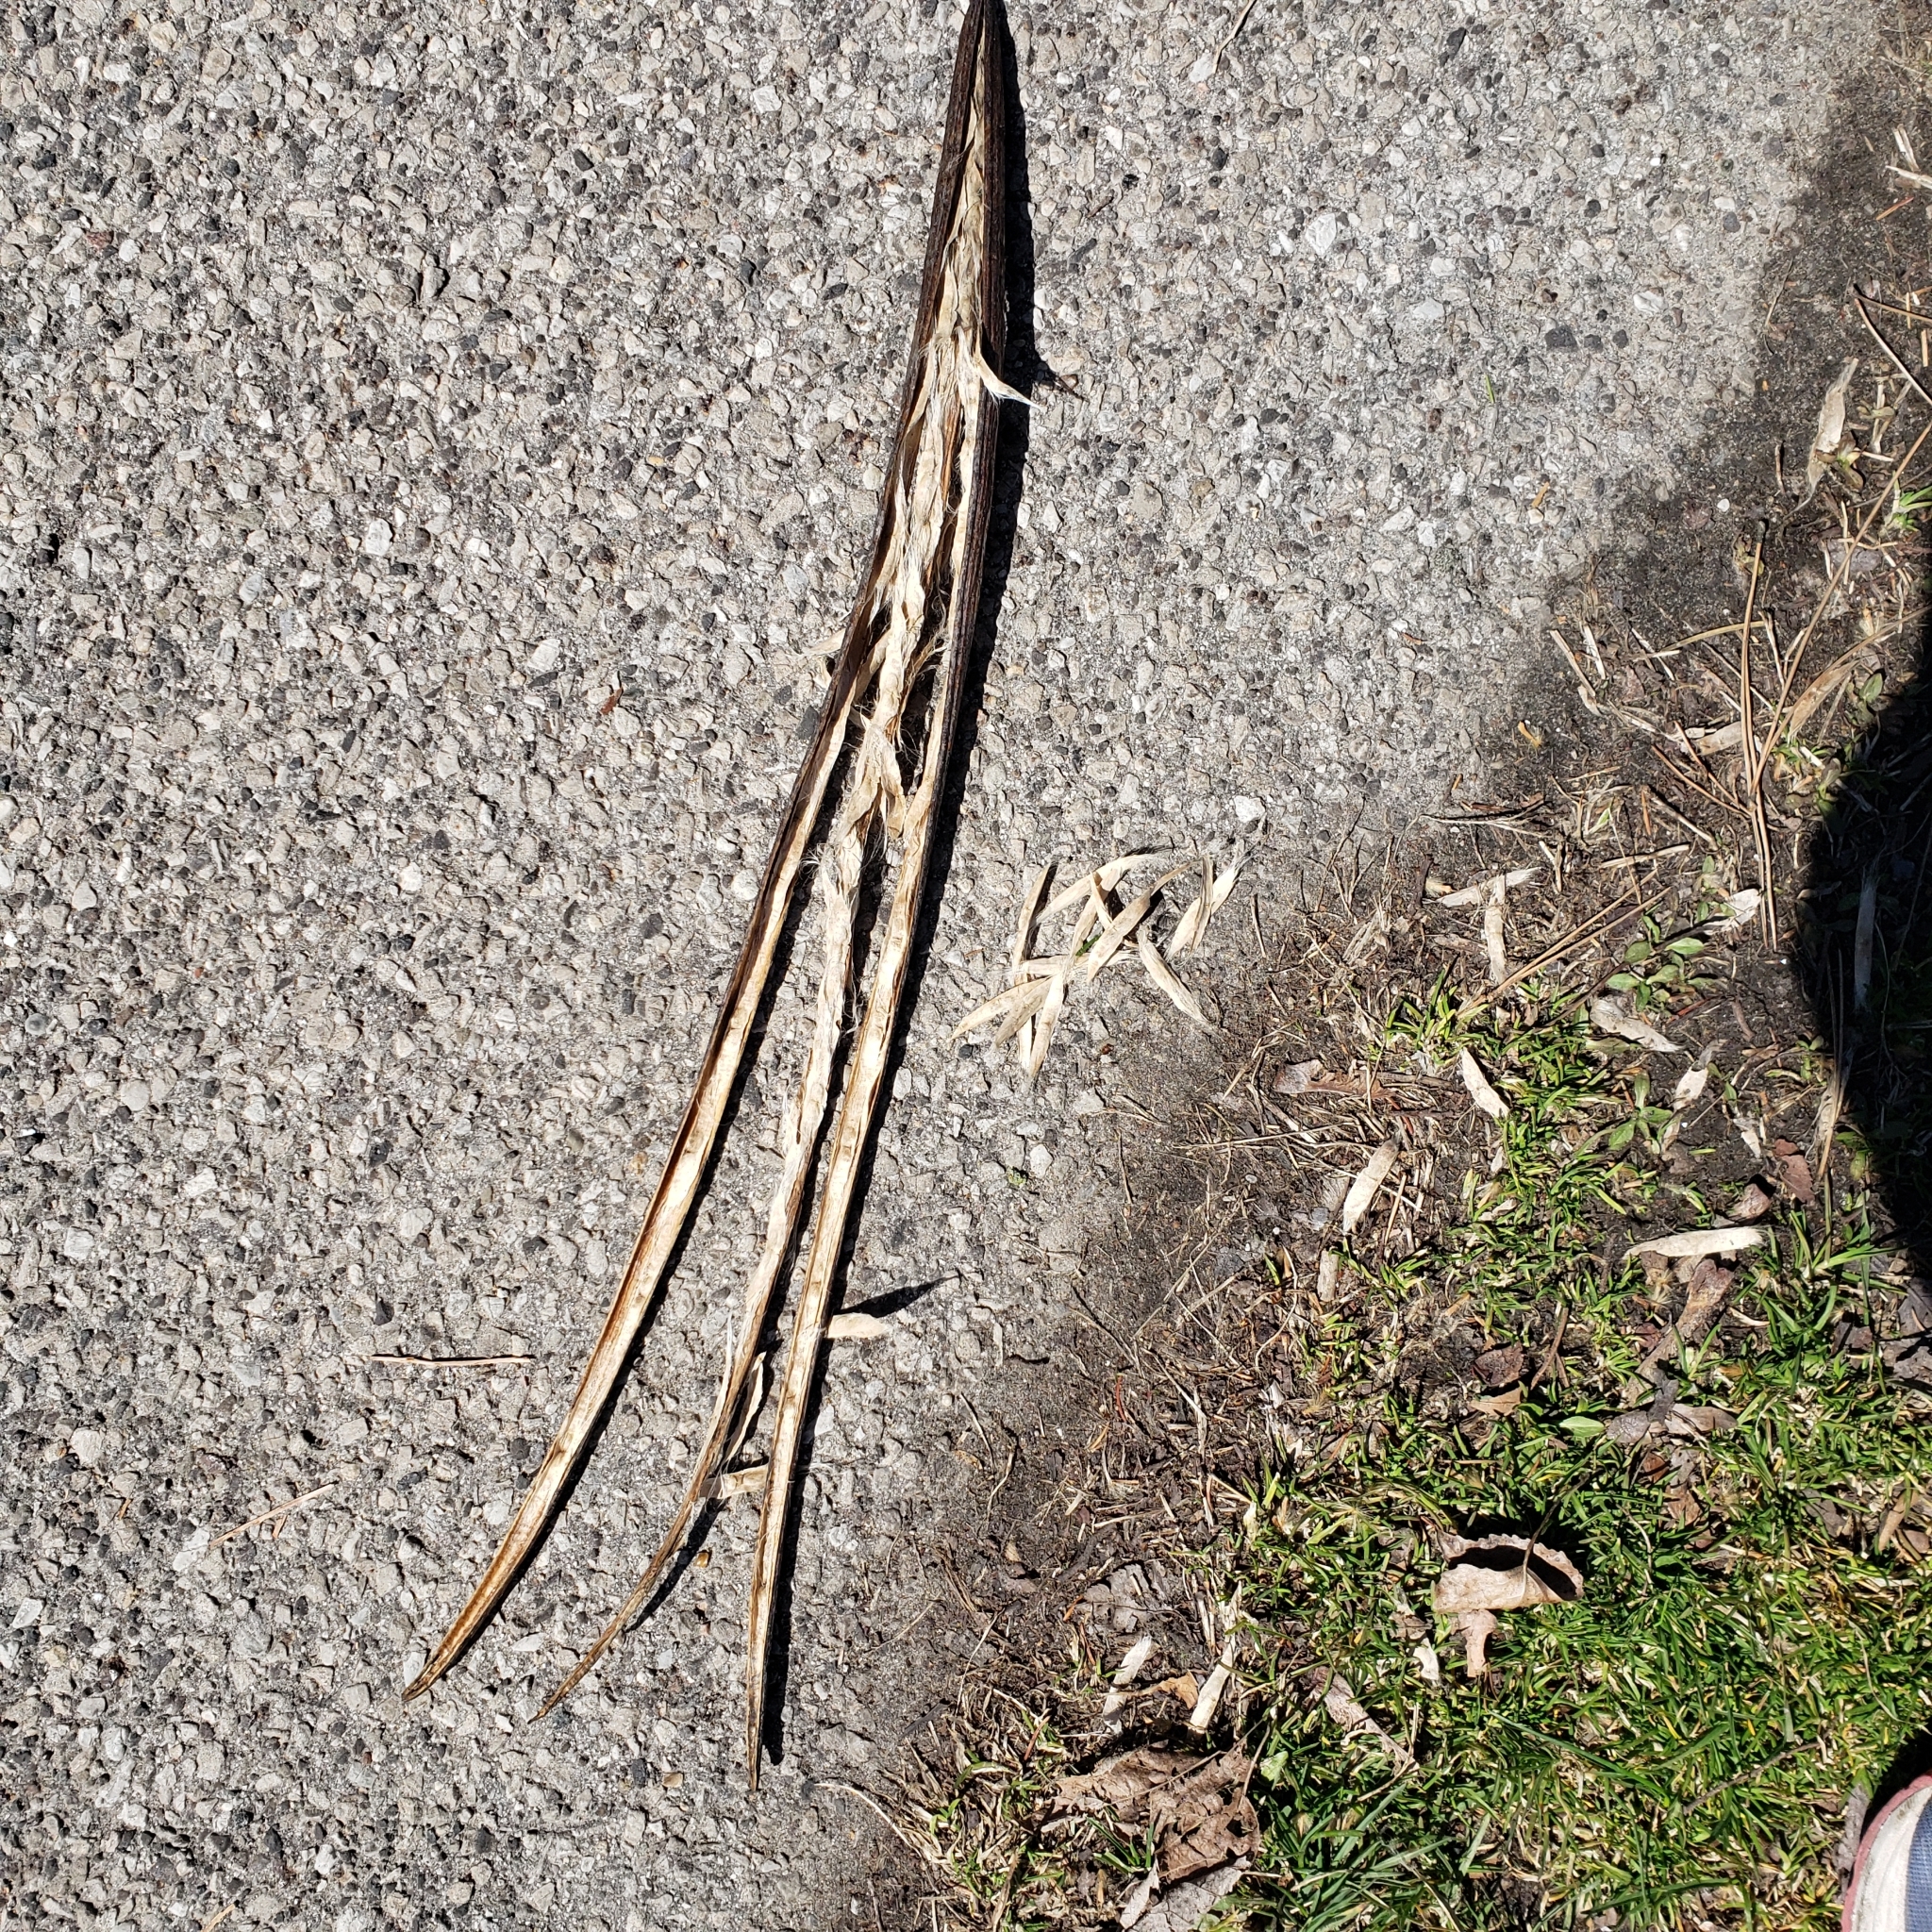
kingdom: Plantae
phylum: Tracheophyta
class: Magnoliopsida
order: Lamiales
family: Bignoniaceae
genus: Catalpa
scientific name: Catalpa speciosa
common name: Northern catalpa
